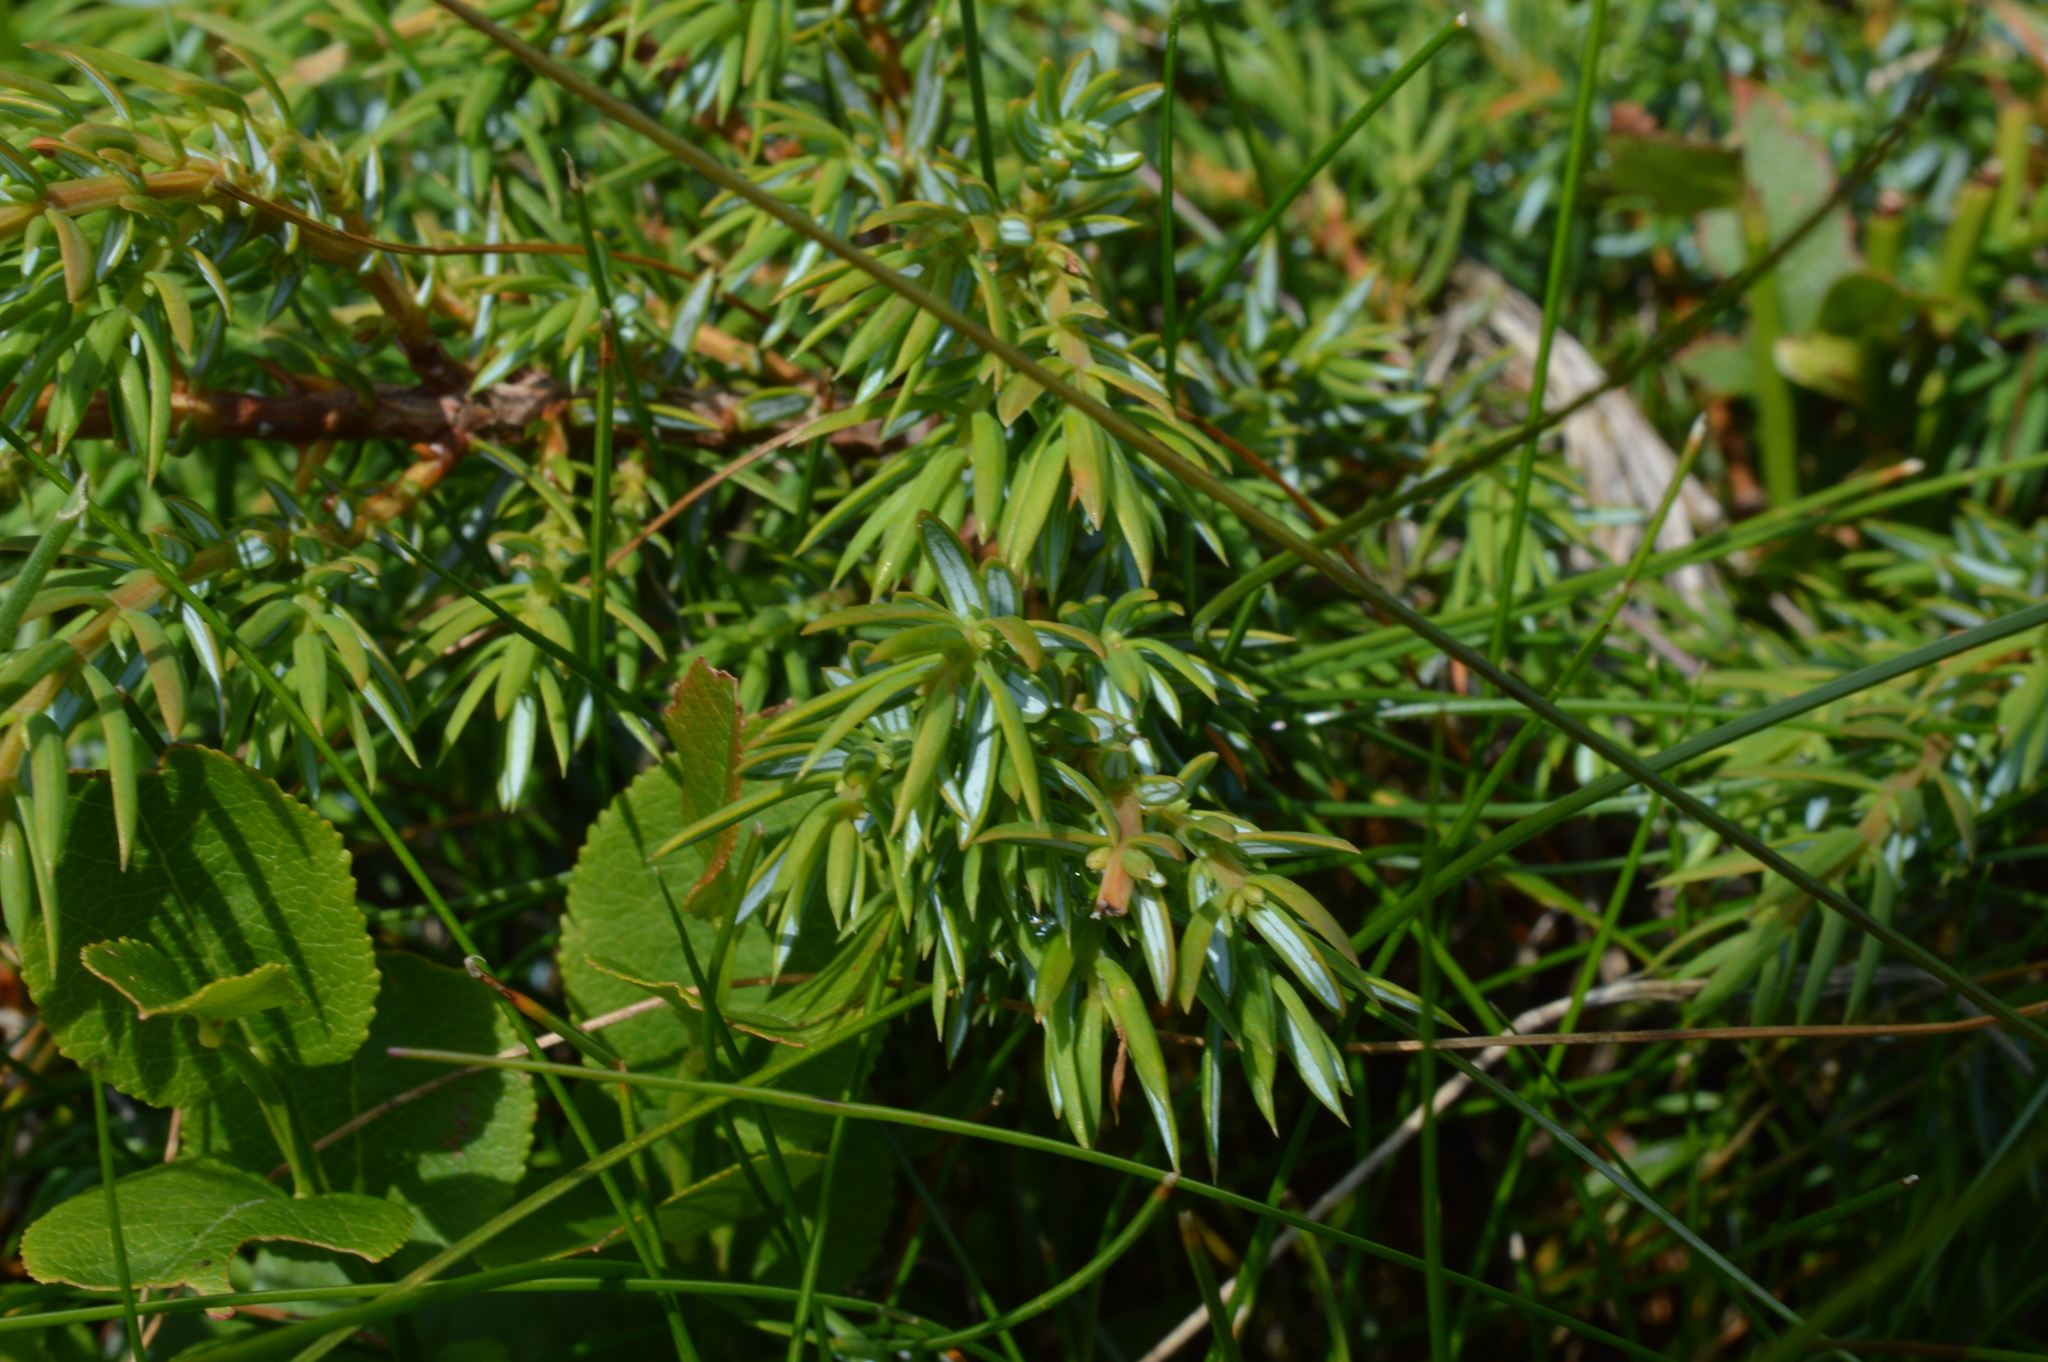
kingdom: Plantae
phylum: Tracheophyta
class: Pinopsida
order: Pinales
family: Cupressaceae
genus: Juniperus
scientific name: Juniperus communis
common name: Common juniper
